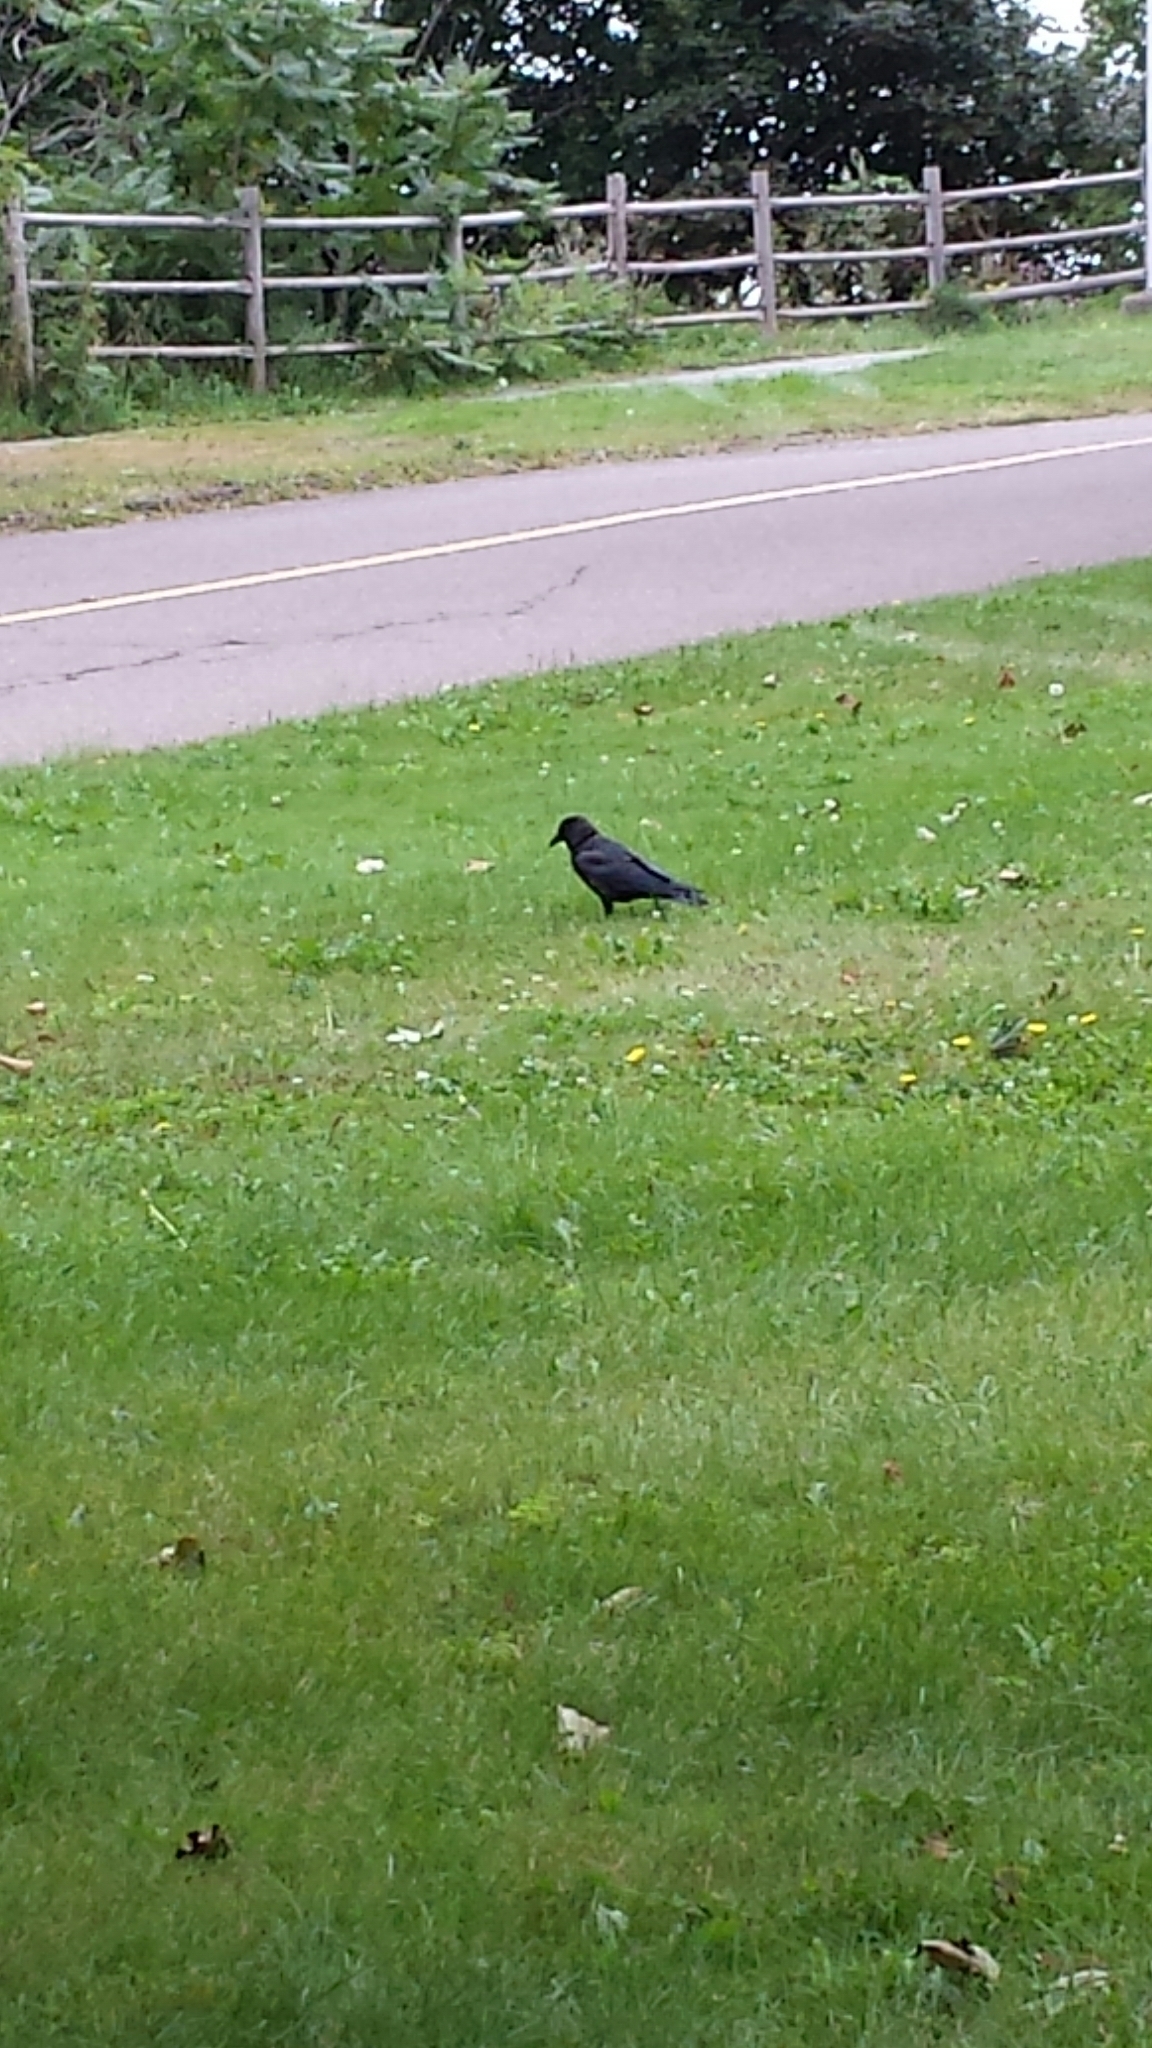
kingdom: Animalia
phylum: Chordata
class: Aves
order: Passeriformes
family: Corvidae
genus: Corvus
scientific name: Corvus brachyrhynchos
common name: American crow
